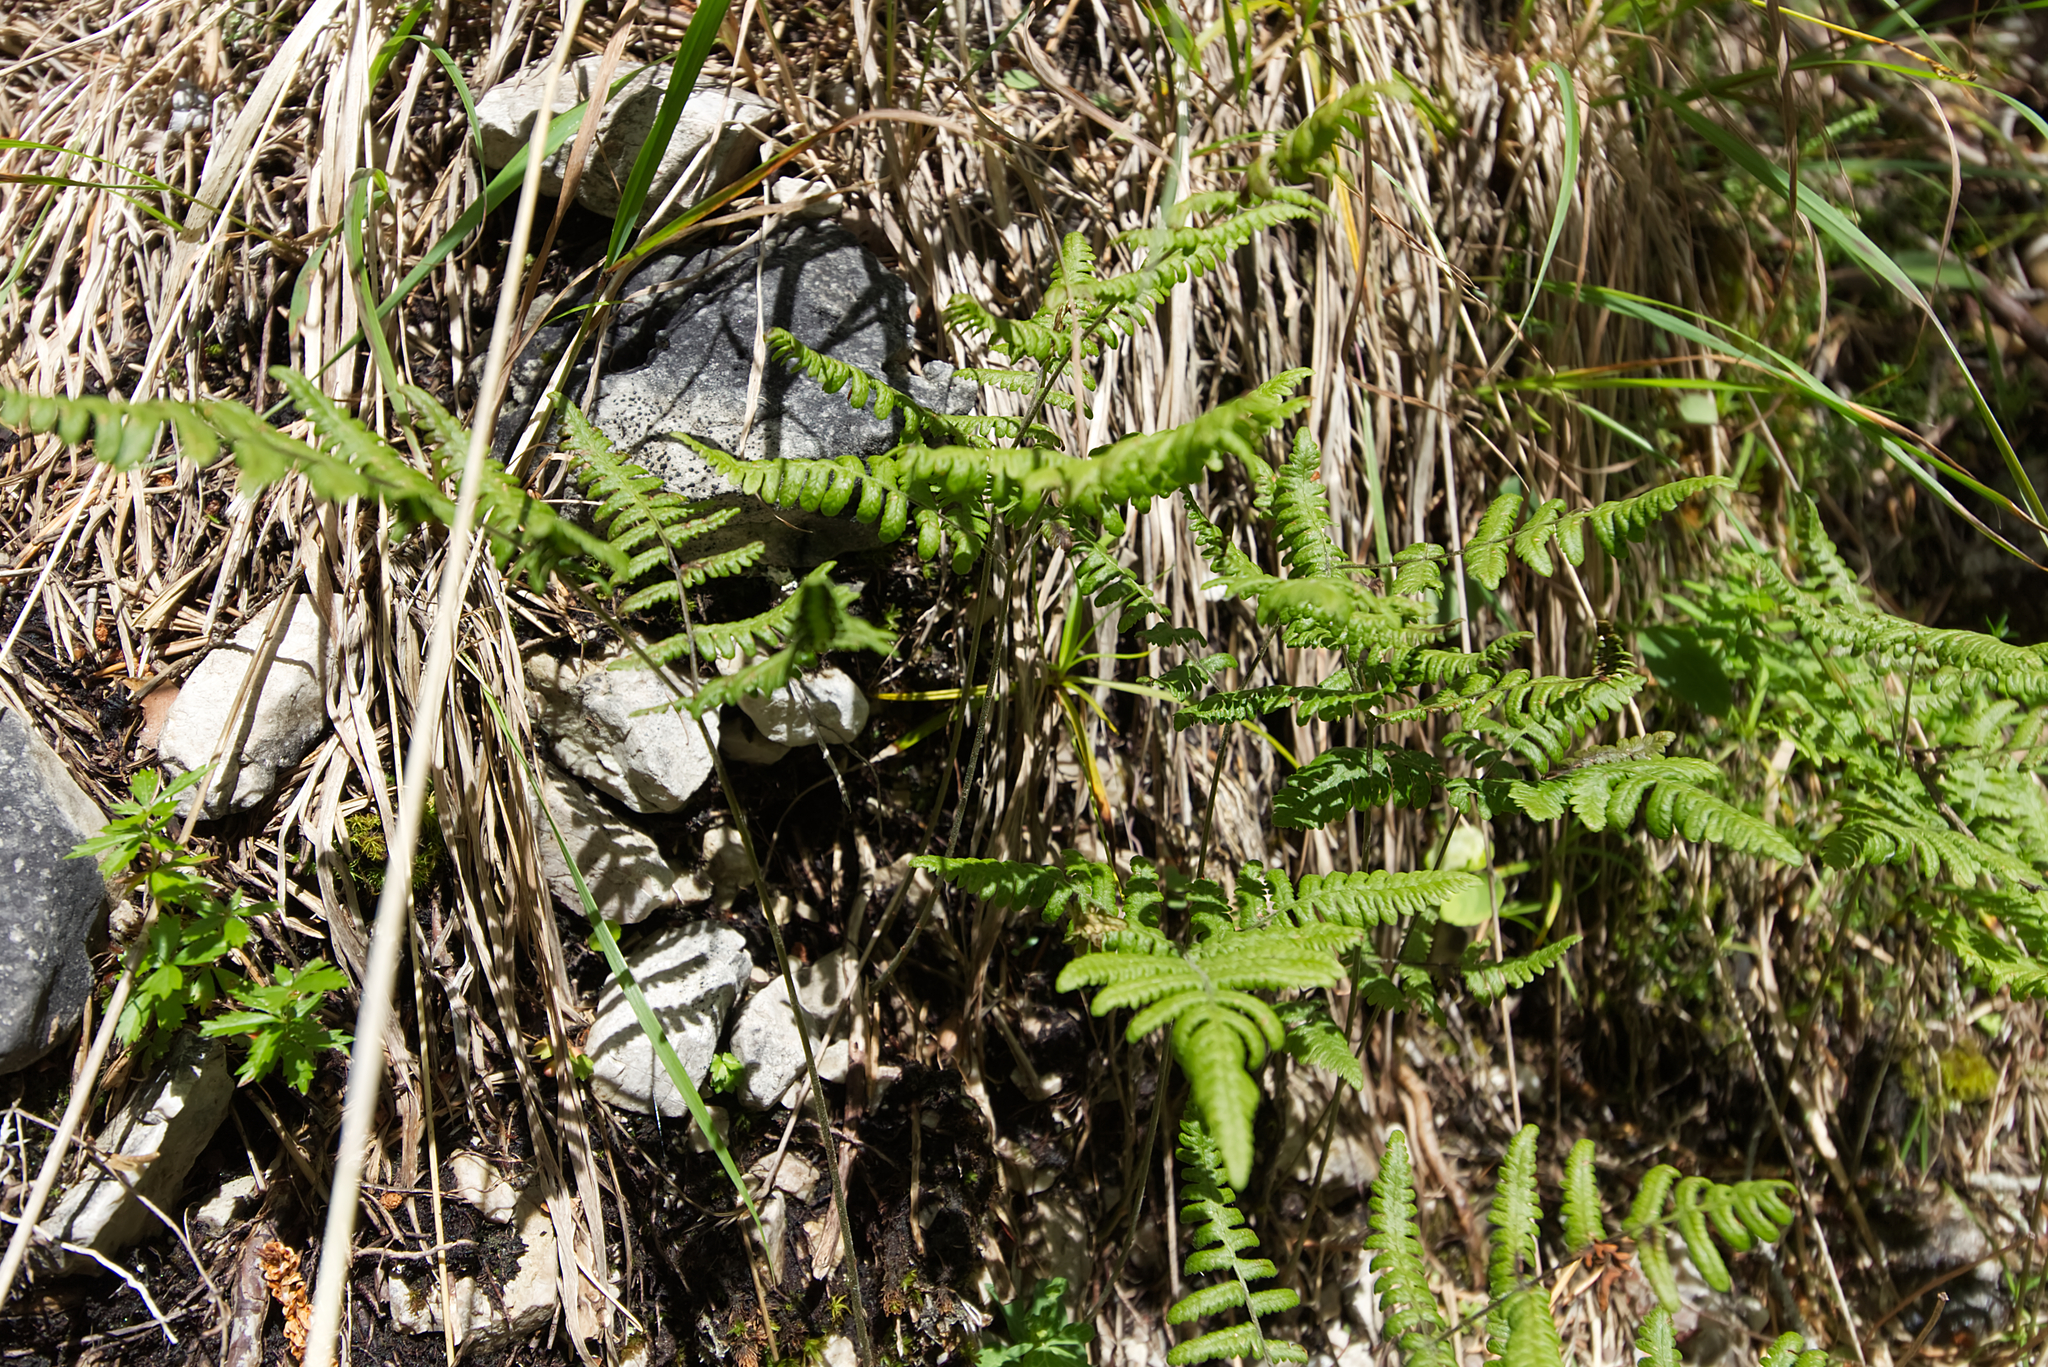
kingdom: Plantae
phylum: Tracheophyta
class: Polypodiopsida
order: Polypodiales
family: Cystopteridaceae
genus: Gymnocarpium
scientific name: Gymnocarpium robertianum
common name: Limestone fern
